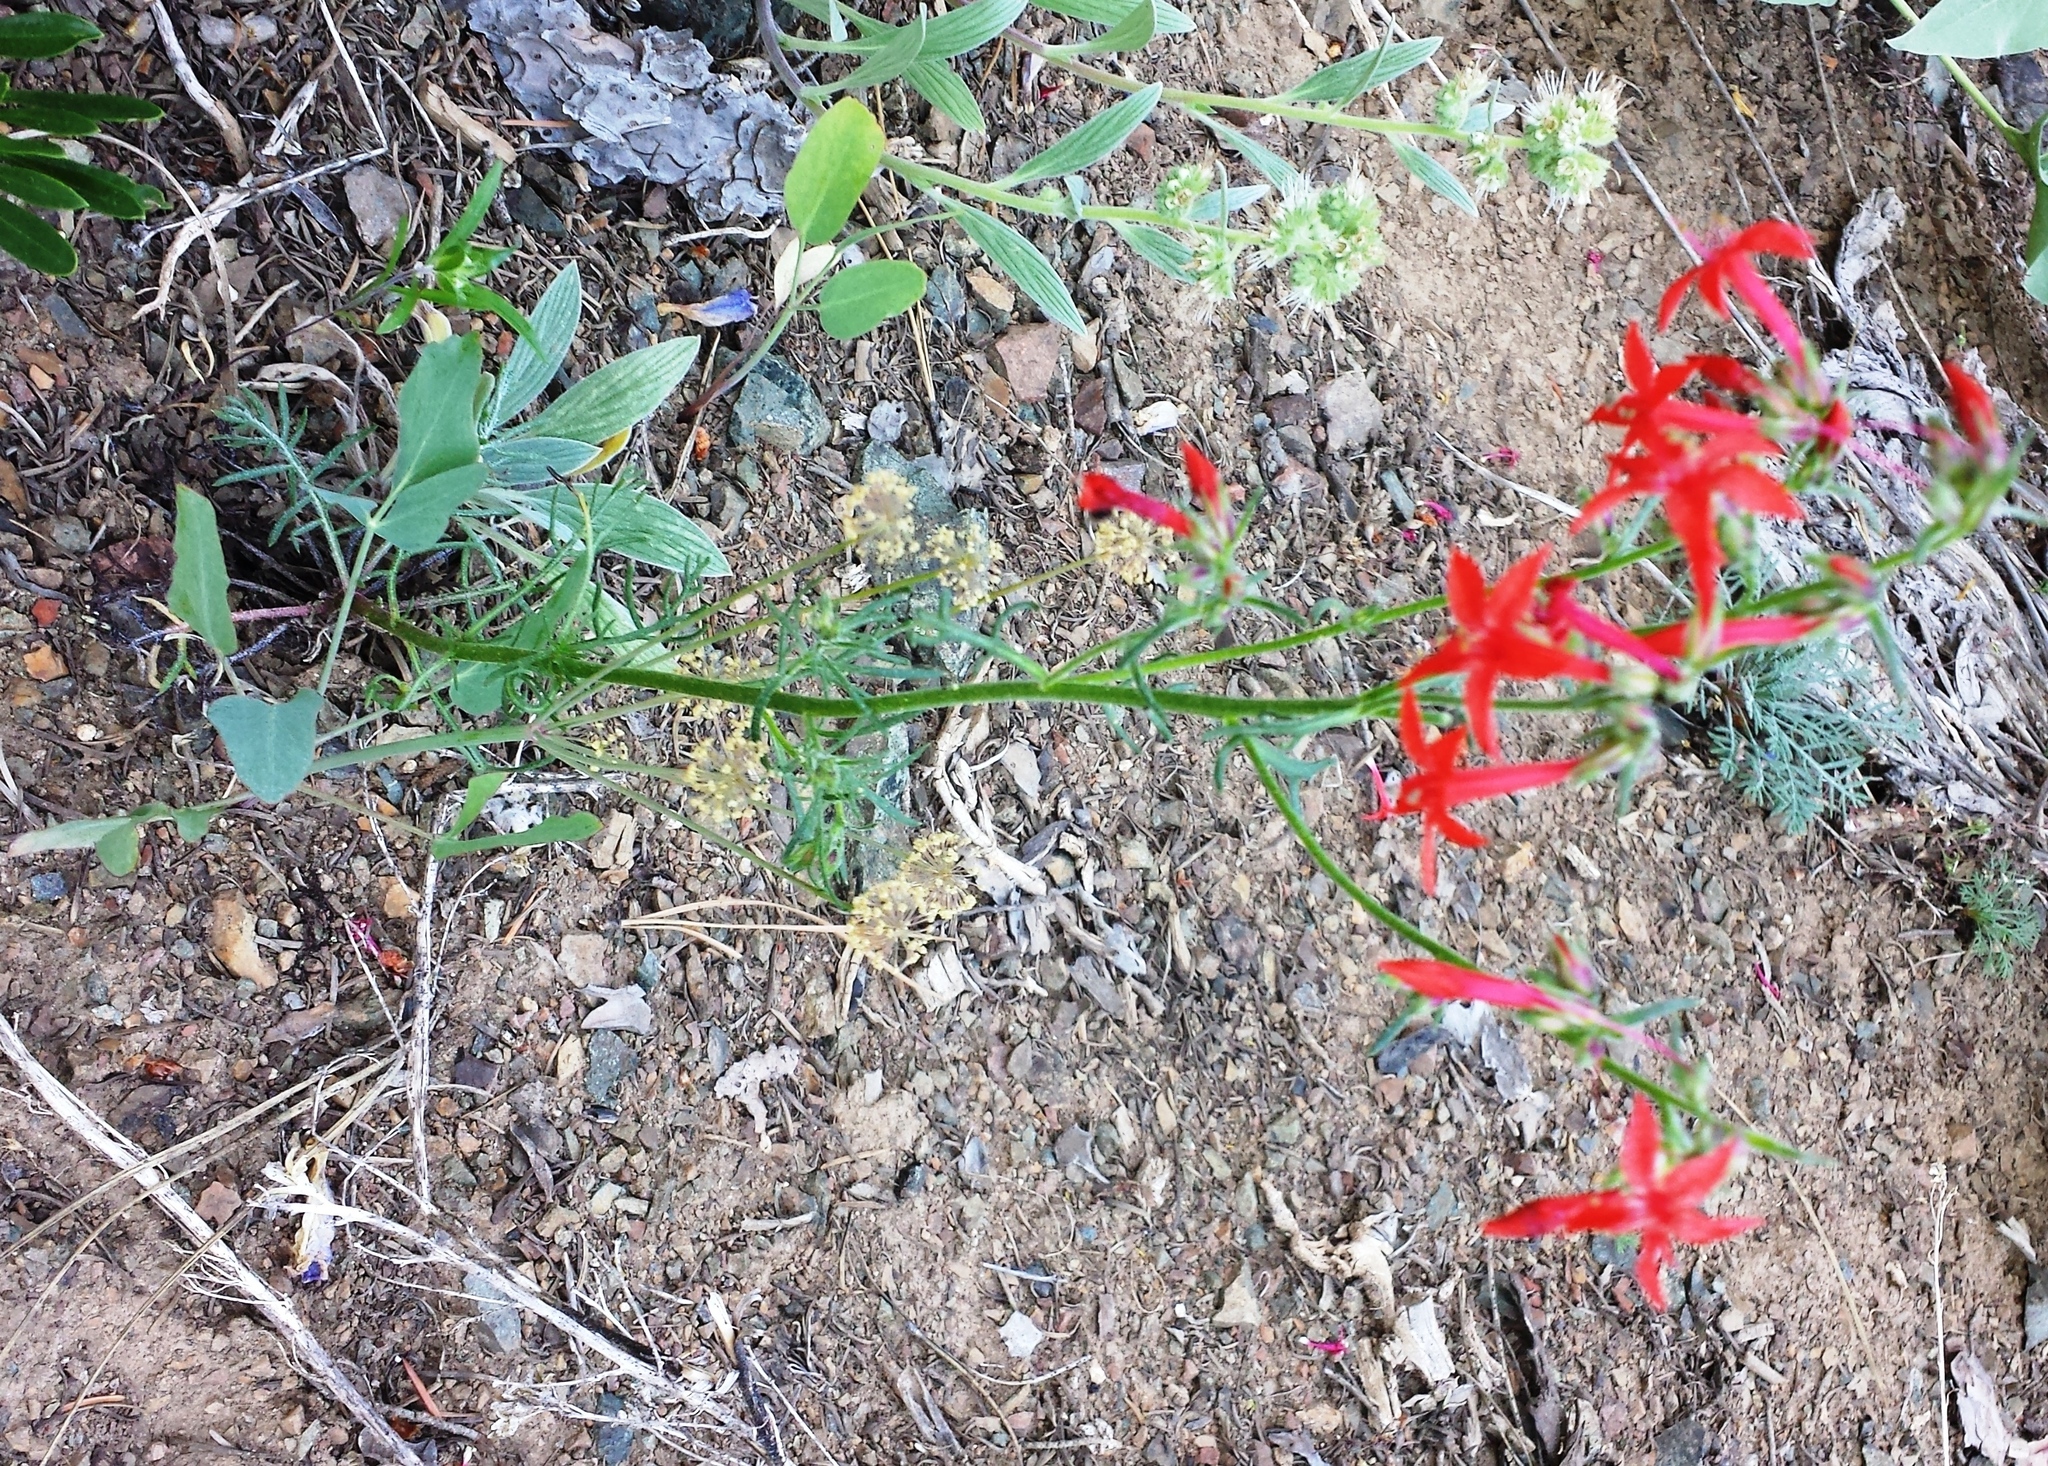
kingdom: Plantae
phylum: Tracheophyta
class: Magnoliopsida
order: Ericales
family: Polemoniaceae
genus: Ipomopsis
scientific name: Ipomopsis aggregata
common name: Scarlet gilia
